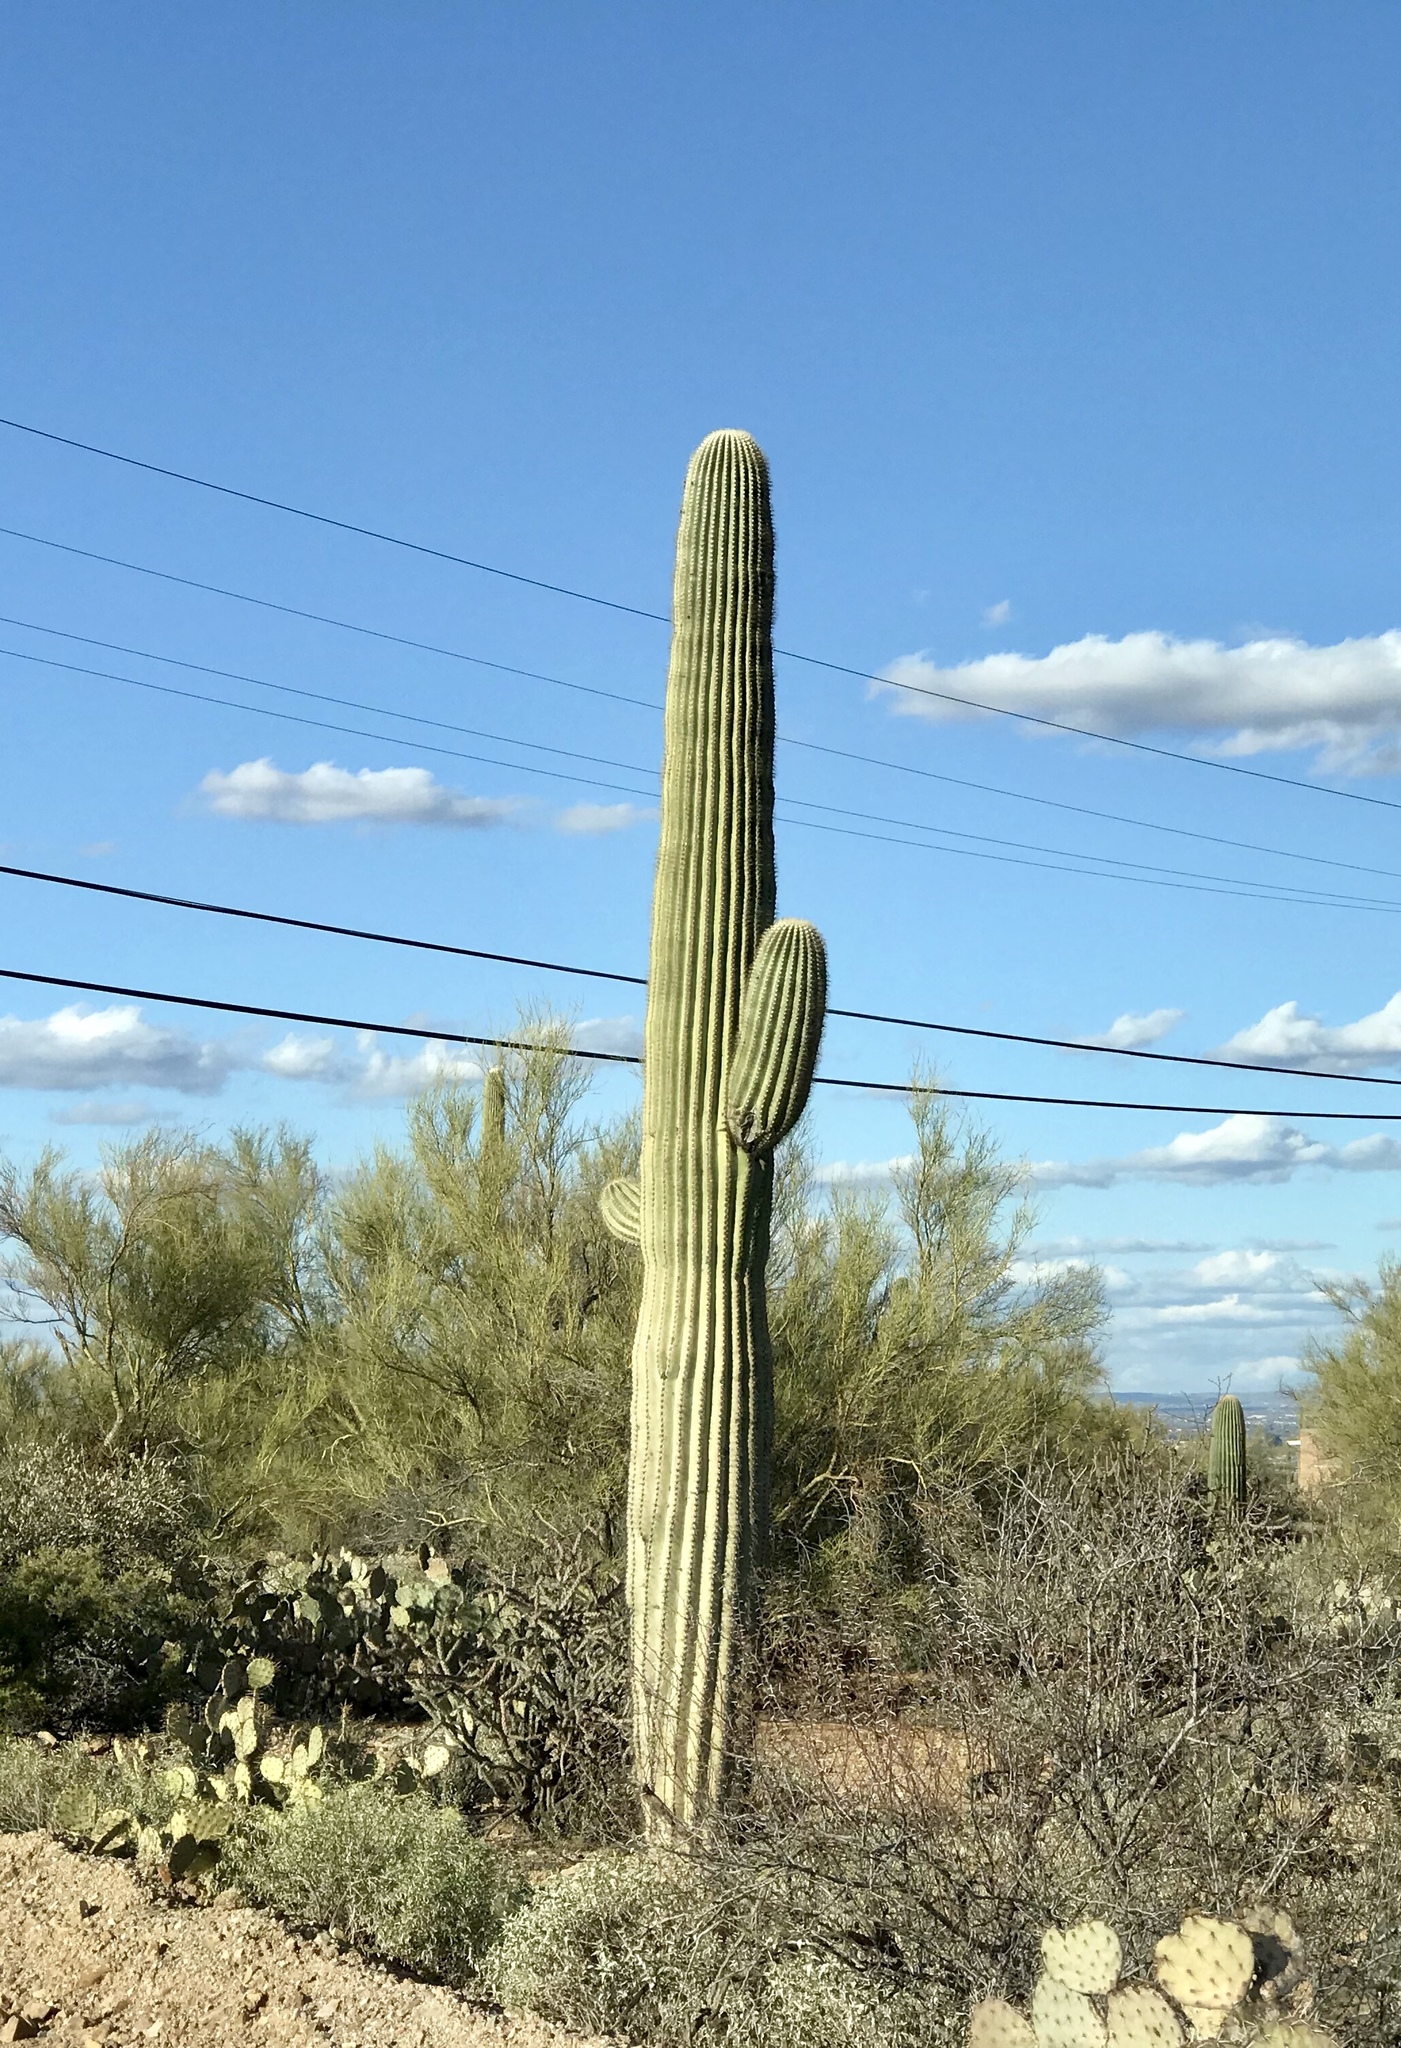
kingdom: Plantae
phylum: Tracheophyta
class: Magnoliopsida
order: Caryophyllales
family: Cactaceae
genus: Carnegiea
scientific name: Carnegiea gigantea
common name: Saguaro
